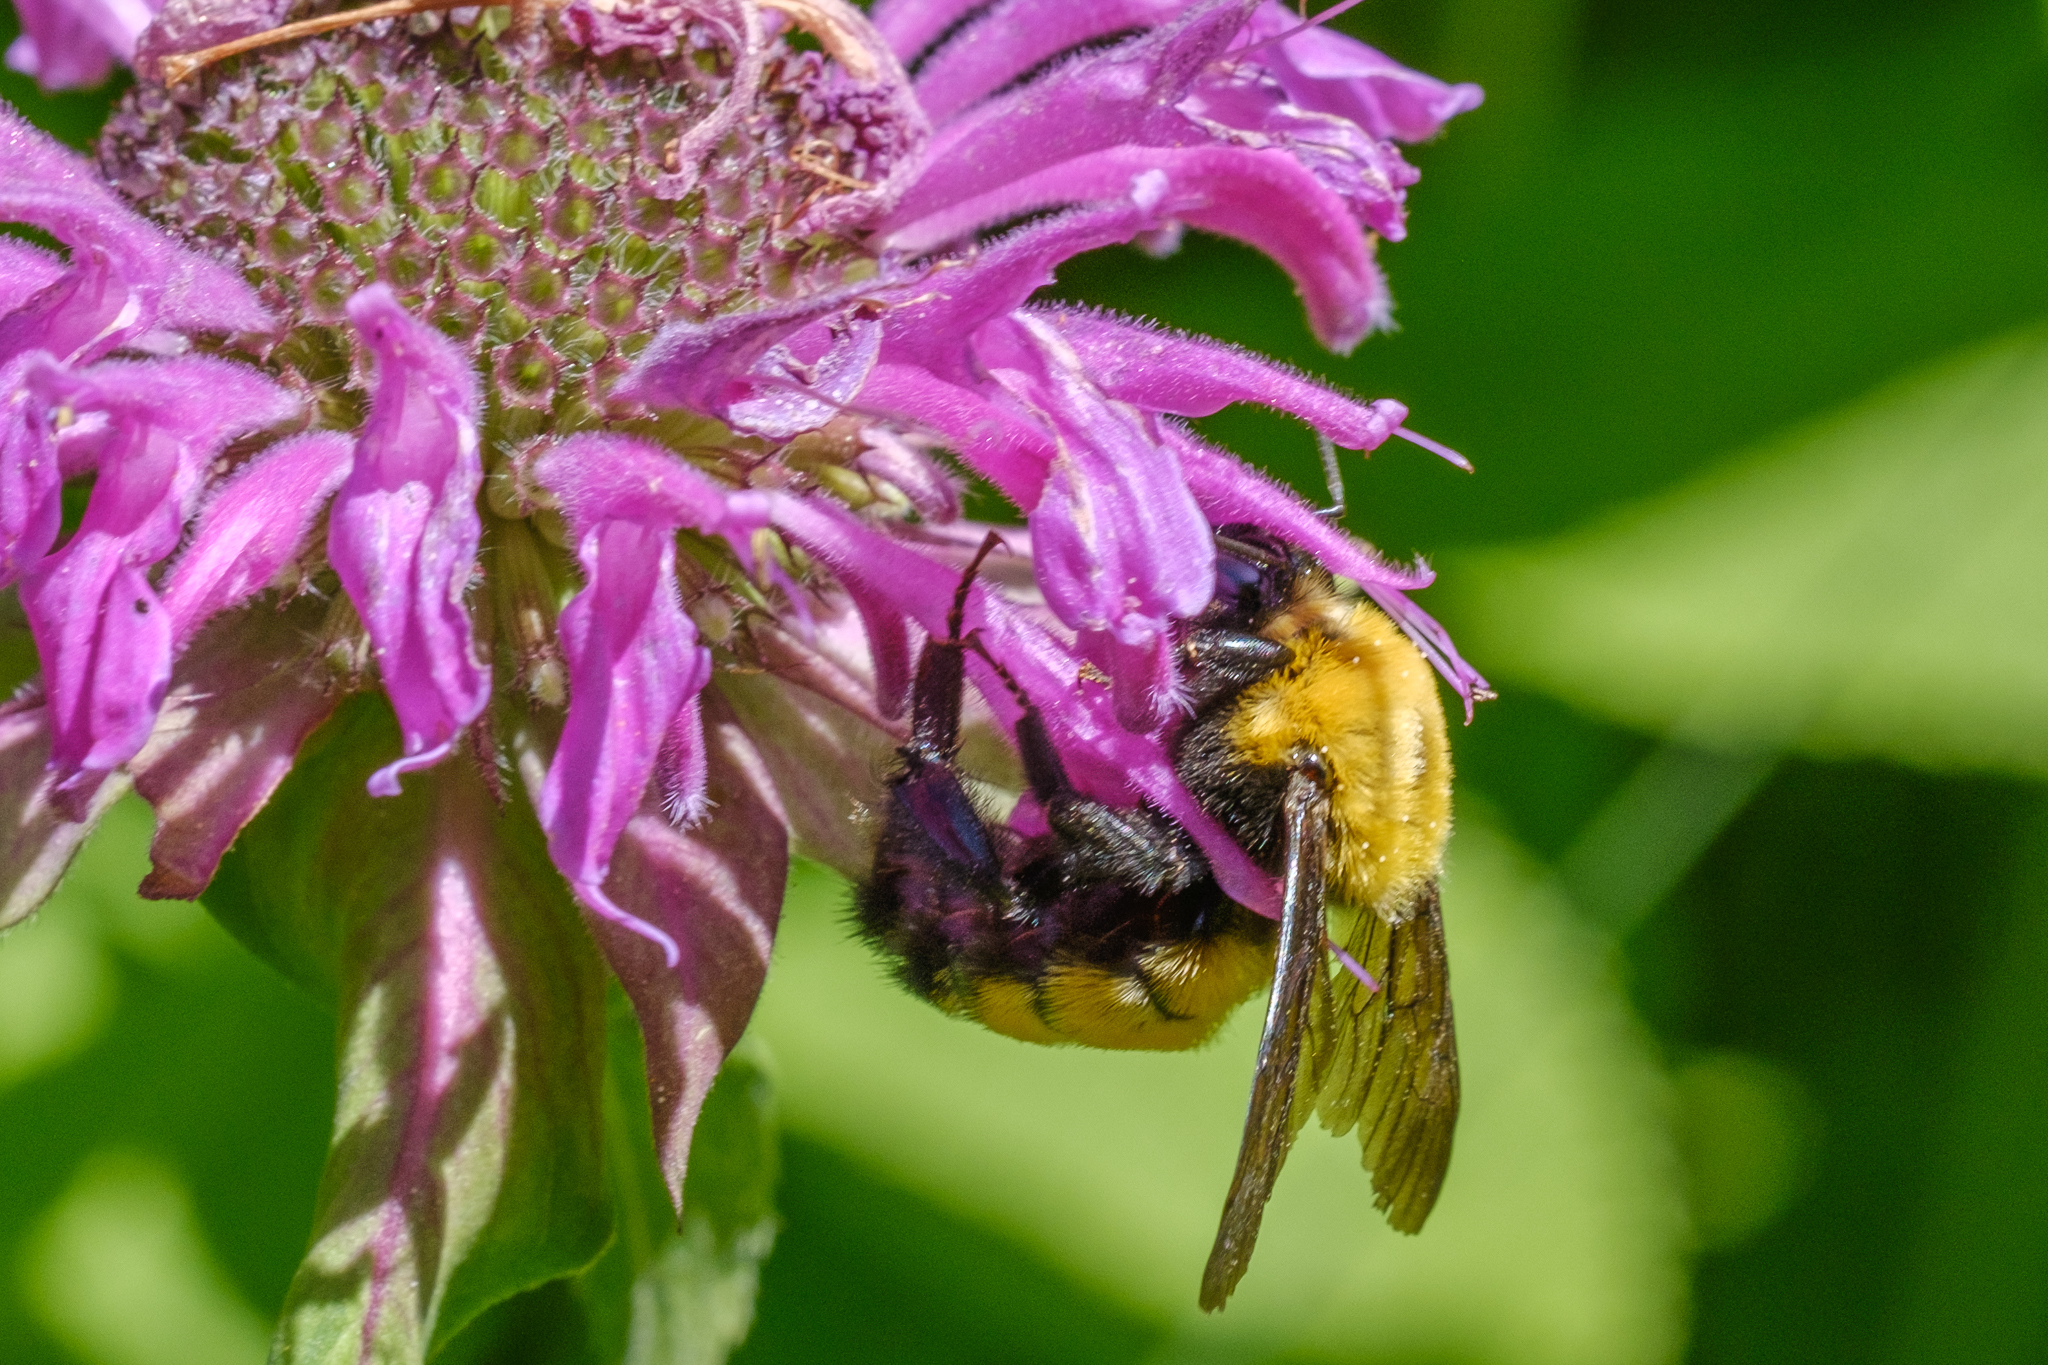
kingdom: Animalia
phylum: Arthropoda
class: Insecta
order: Hymenoptera
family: Apidae
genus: Bombus
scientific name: Bombus morrisoni
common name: Morrison bumble bee
